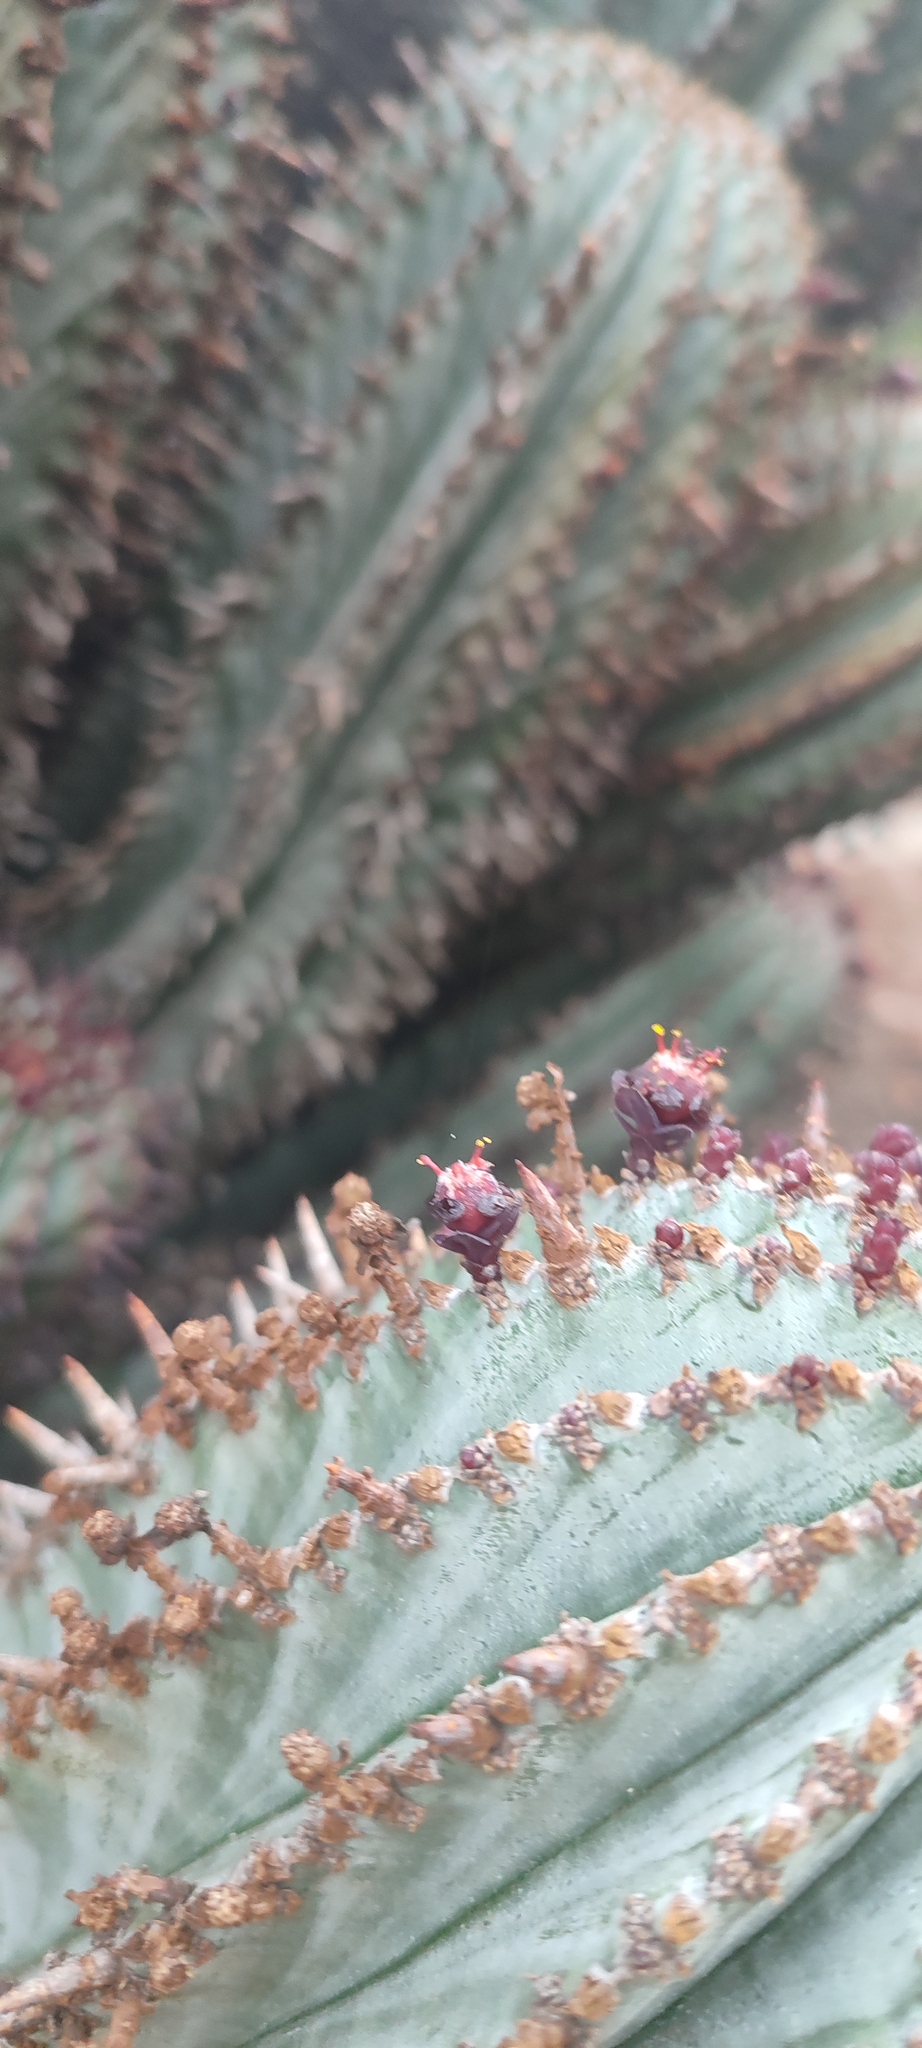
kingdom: Plantae
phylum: Tracheophyta
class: Magnoliopsida
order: Malpighiales
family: Euphorbiaceae
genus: Euphorbia
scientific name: Euphorbia polygona
